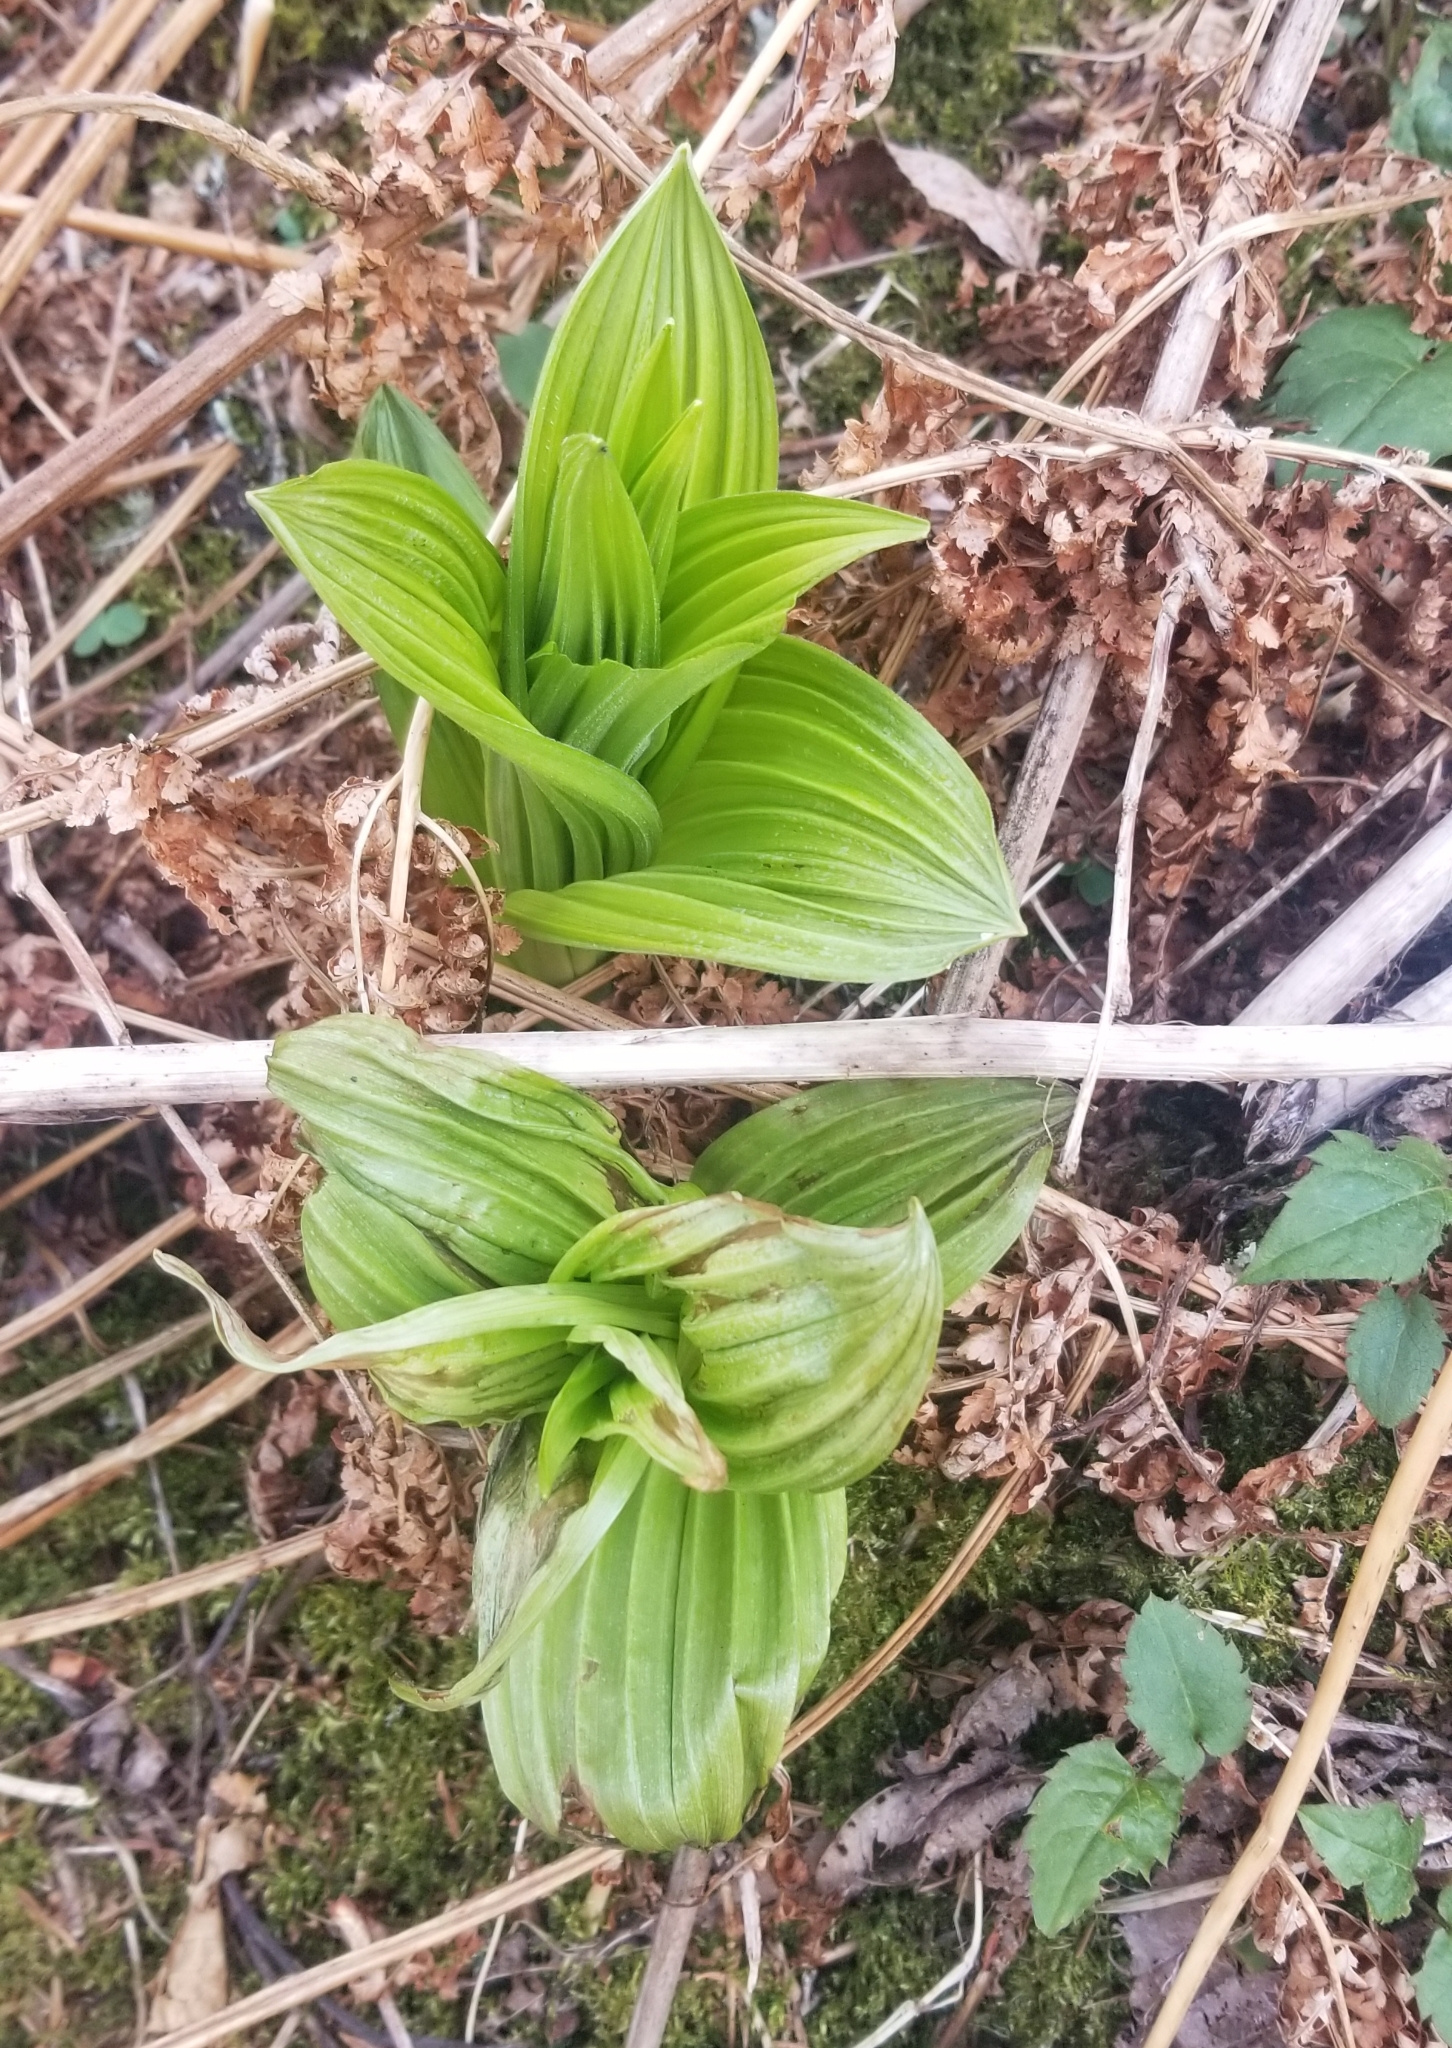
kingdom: Plantae
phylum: Tracheophyta
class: Liliopsida
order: Liliales
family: Melanthiaceae
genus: Veratrum
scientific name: Veratrum viride
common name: American false hellebore
